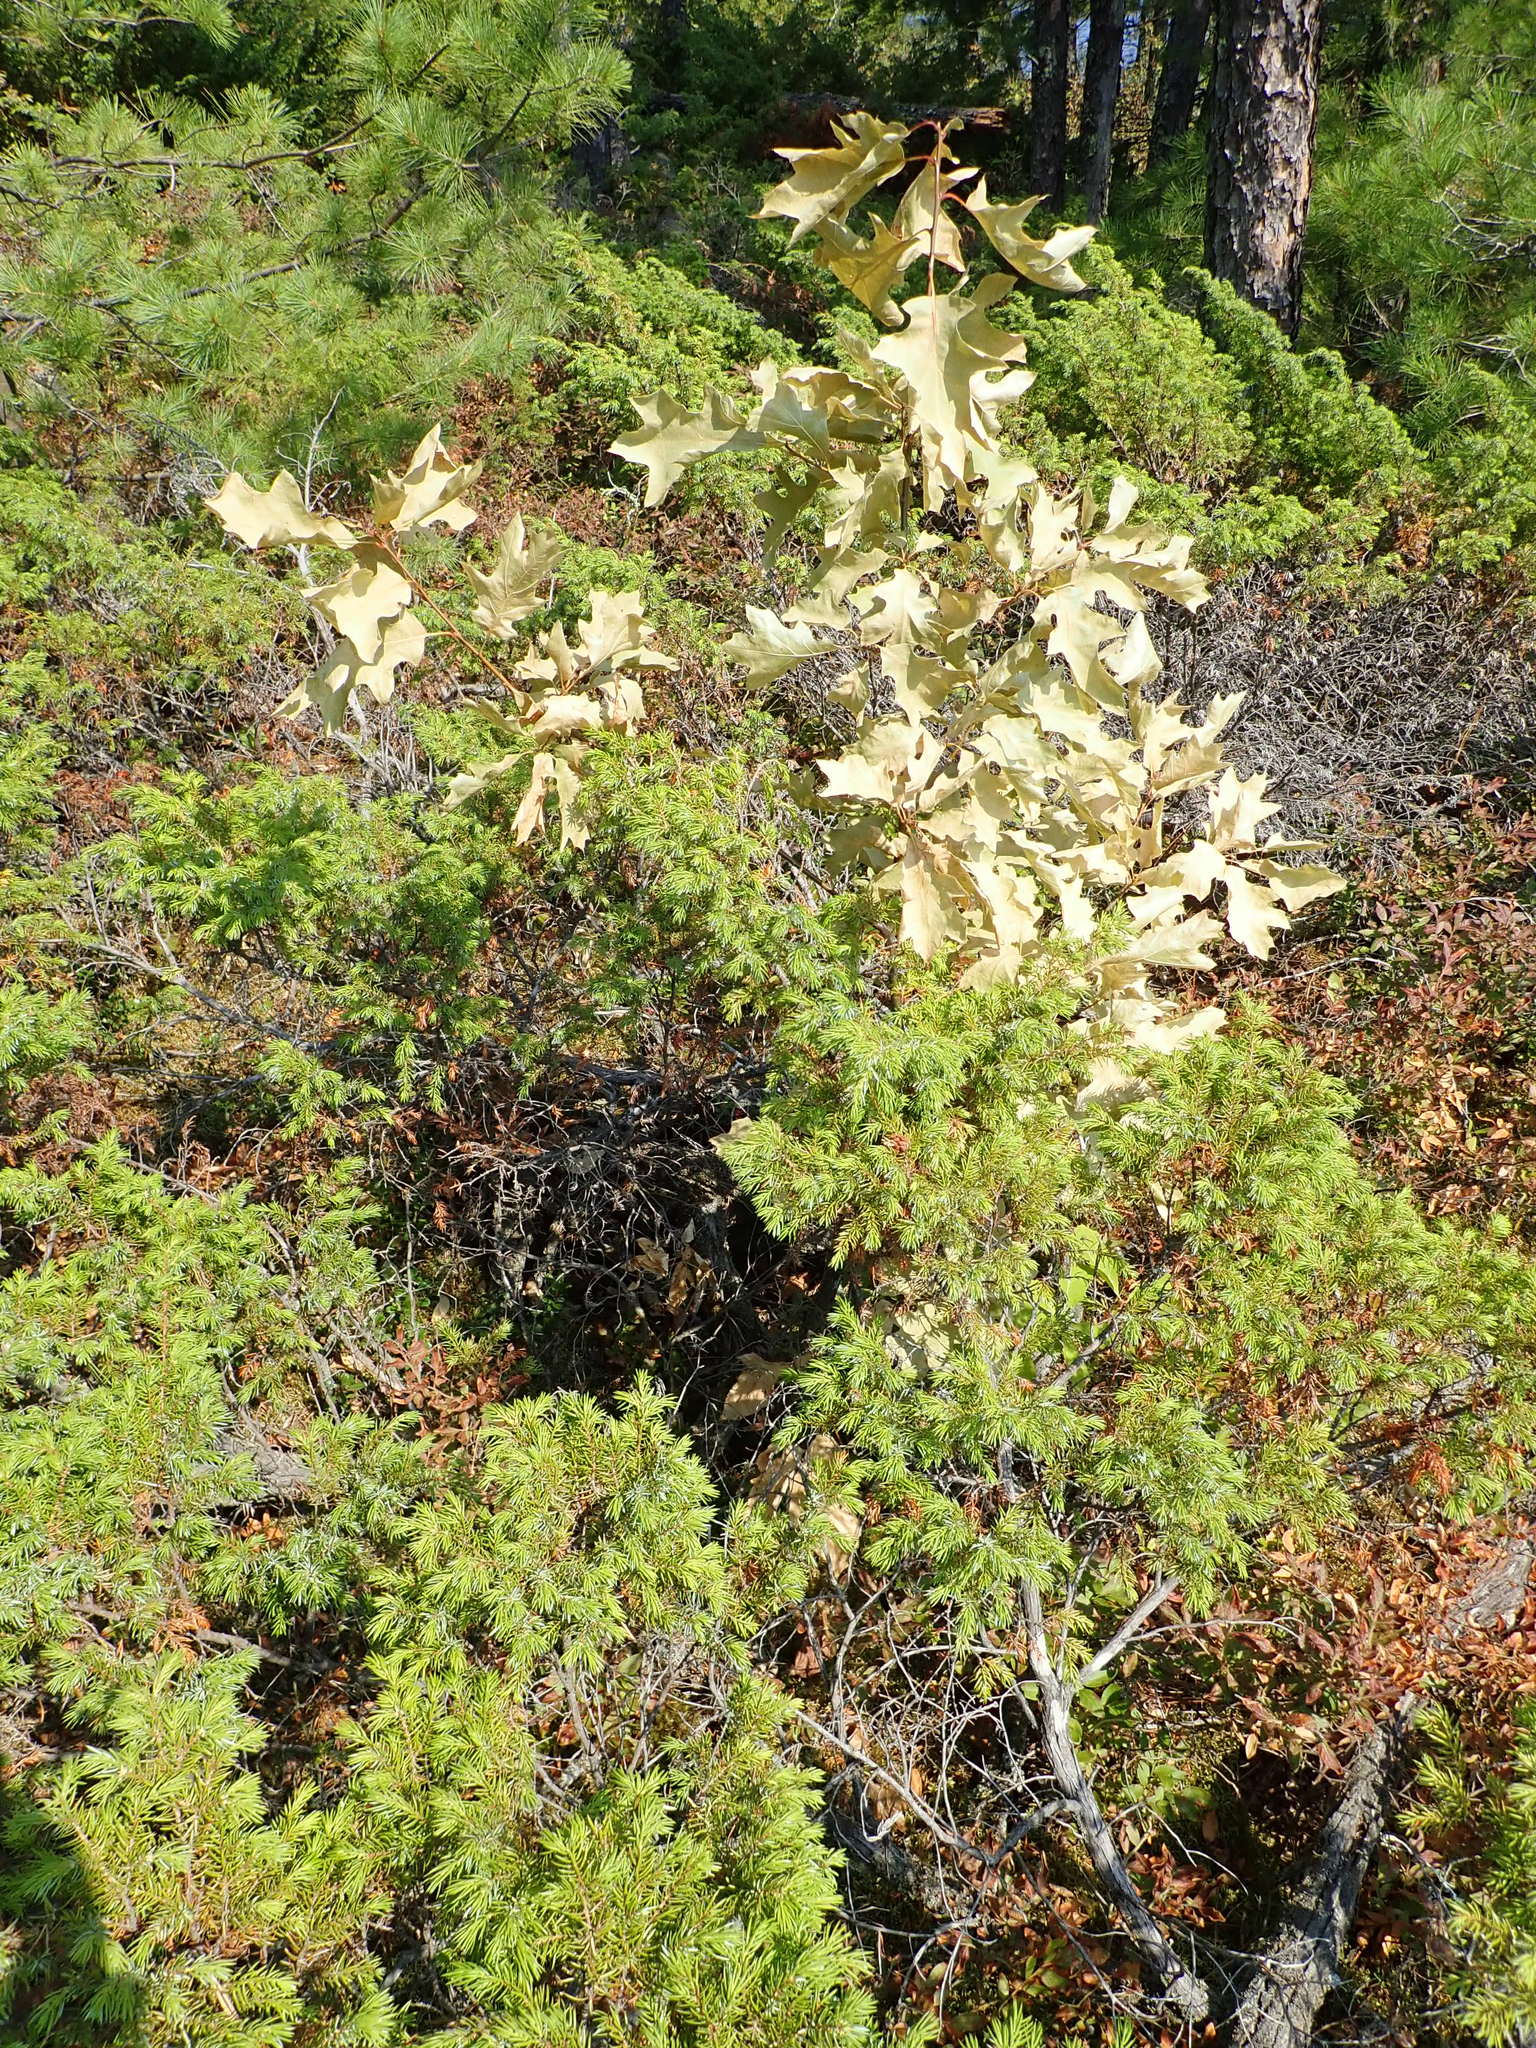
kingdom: Plantae
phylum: Tracheophyta
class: Magnoliopsida
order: Fagales
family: Fagaceae
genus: Quercus
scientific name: Quercus ellipsoidalis
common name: Hill's oak
